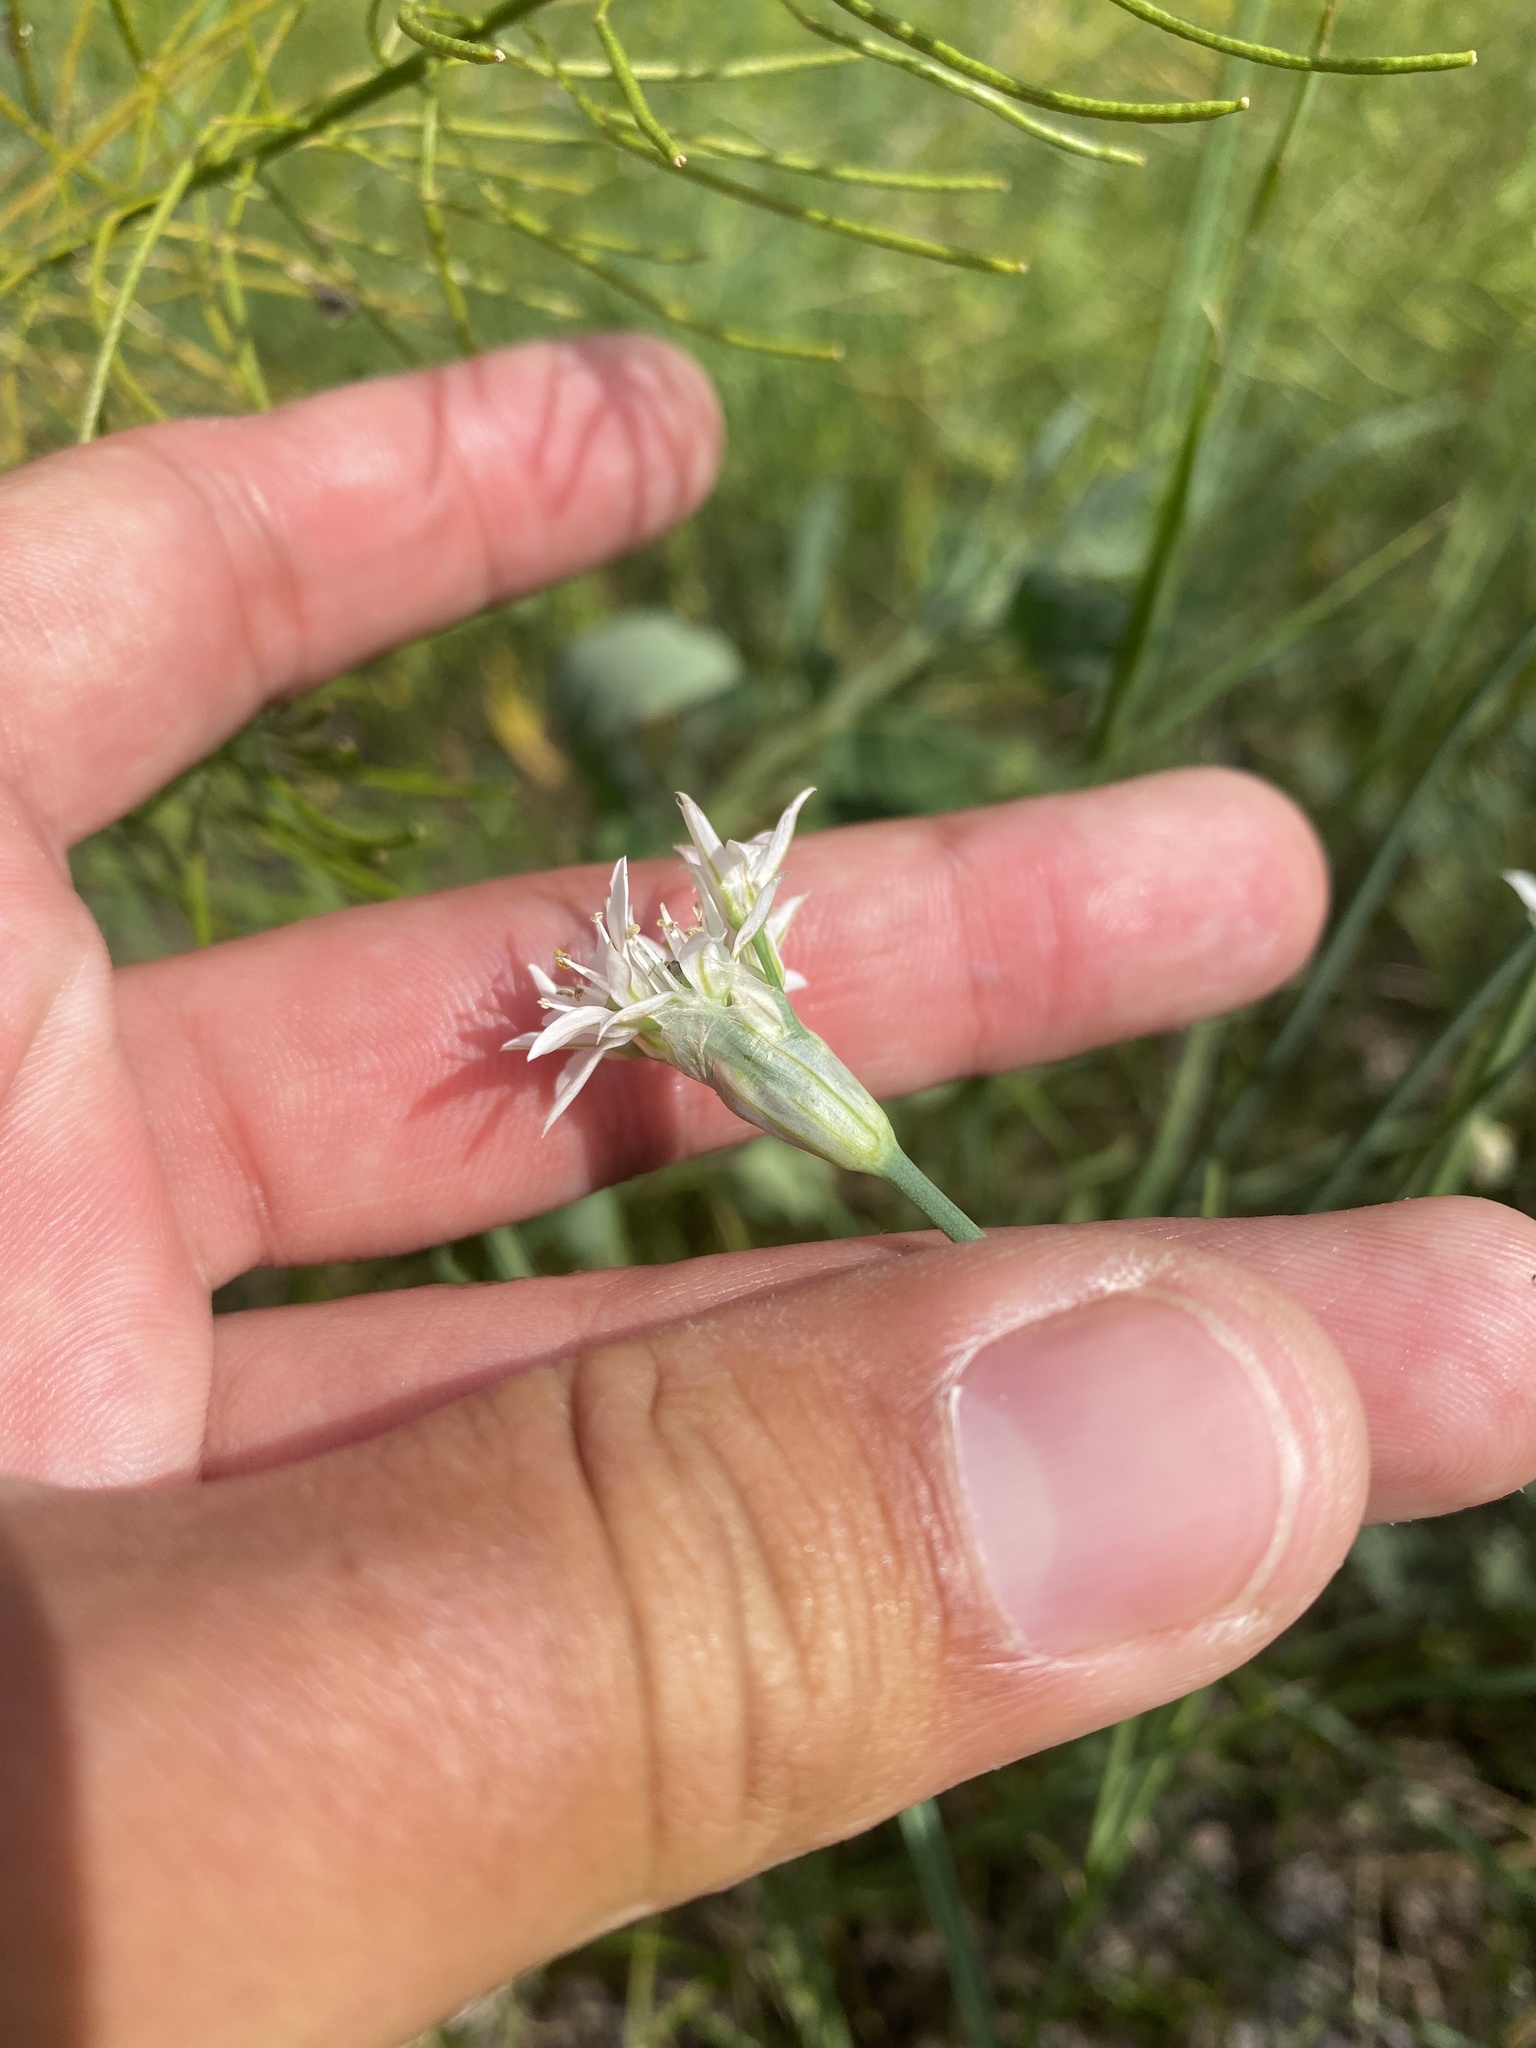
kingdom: Plantae
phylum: Tracheophyta
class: Liliopsida
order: Asparagales
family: Amaryllidaceae
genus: Allium
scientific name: Allium ramosum
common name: Fragrant garlic
